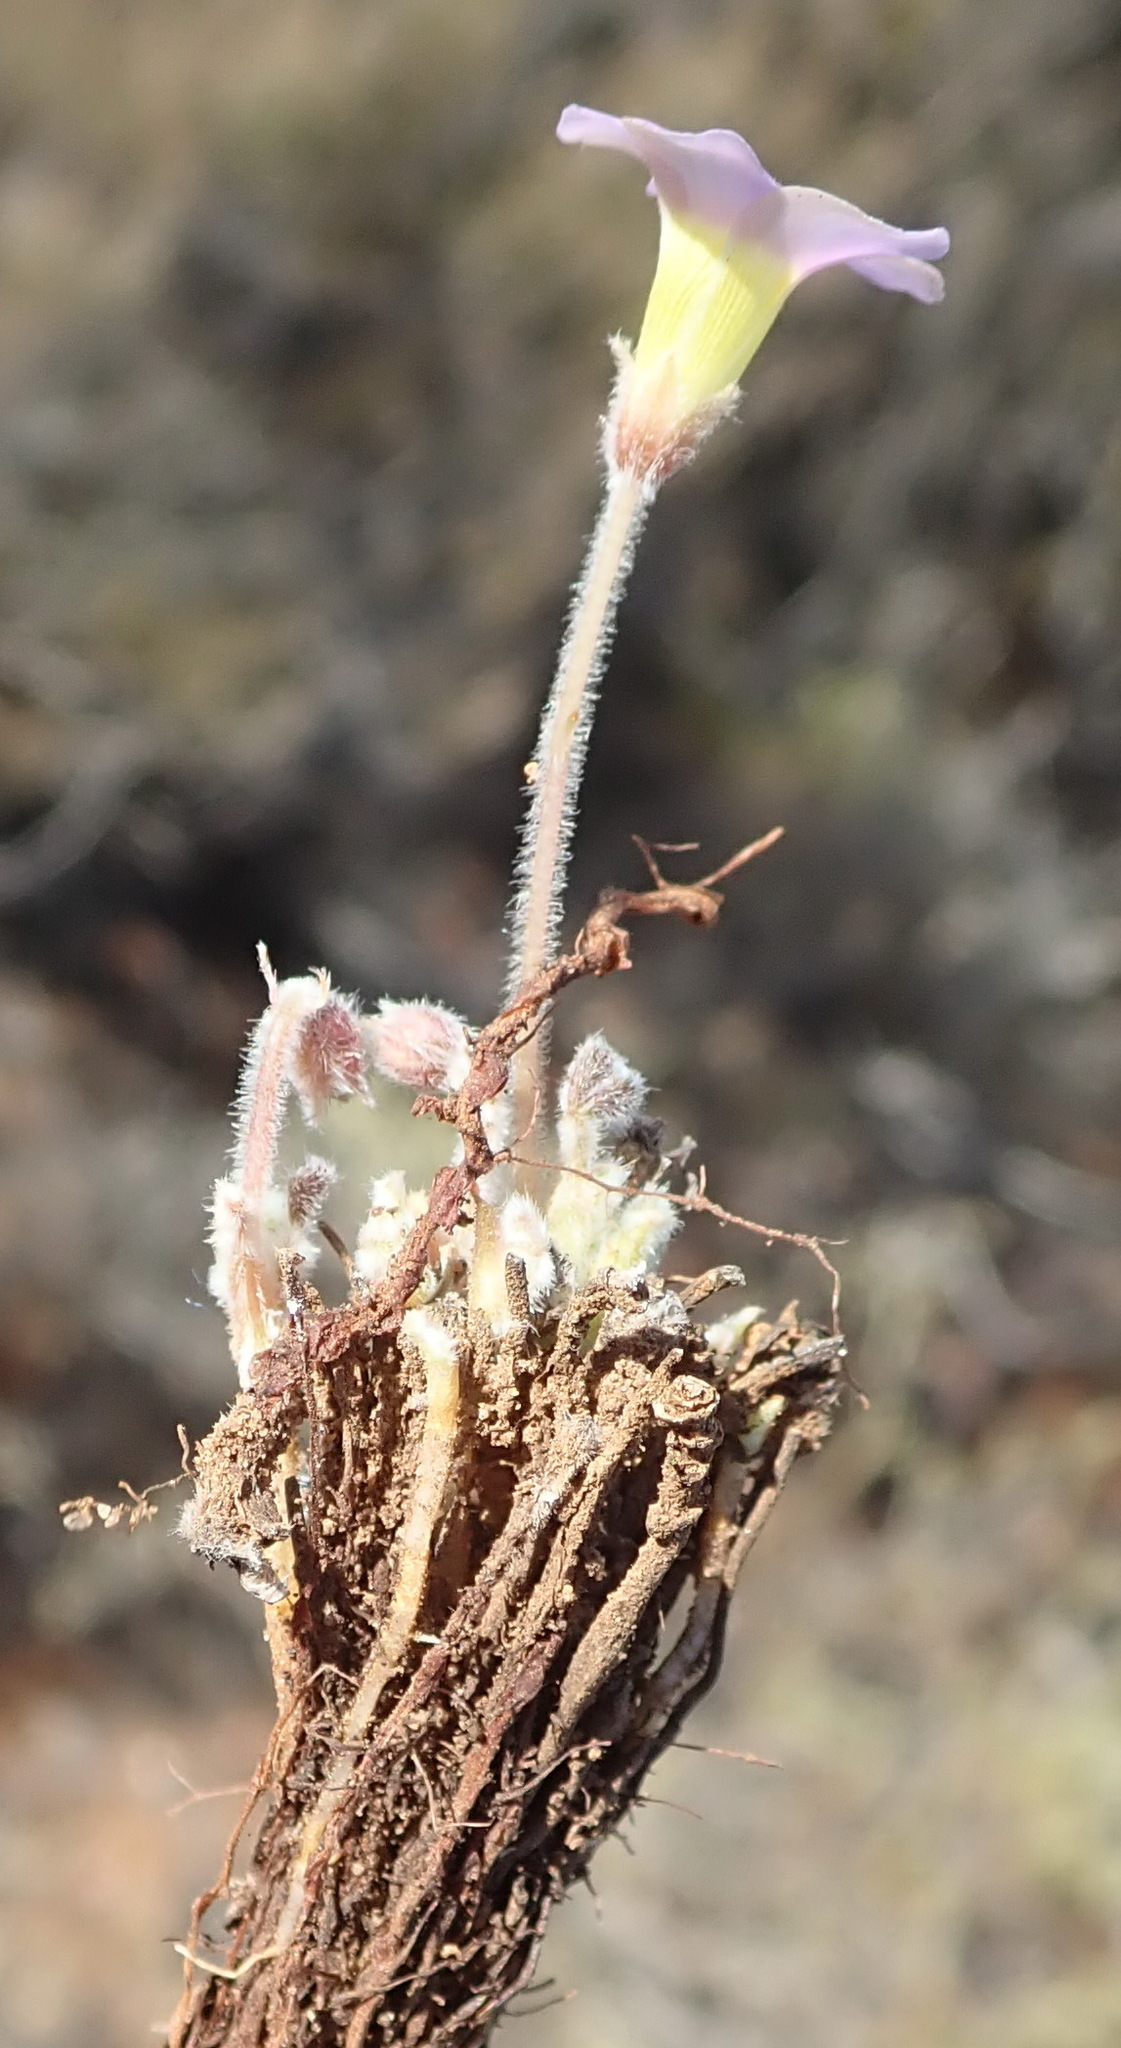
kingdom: Plantae
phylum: Tracheophyta
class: Magnoliopsida
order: Oxalidales
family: Oxalidaceae
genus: Oxalis
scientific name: Oxalis imbricata
